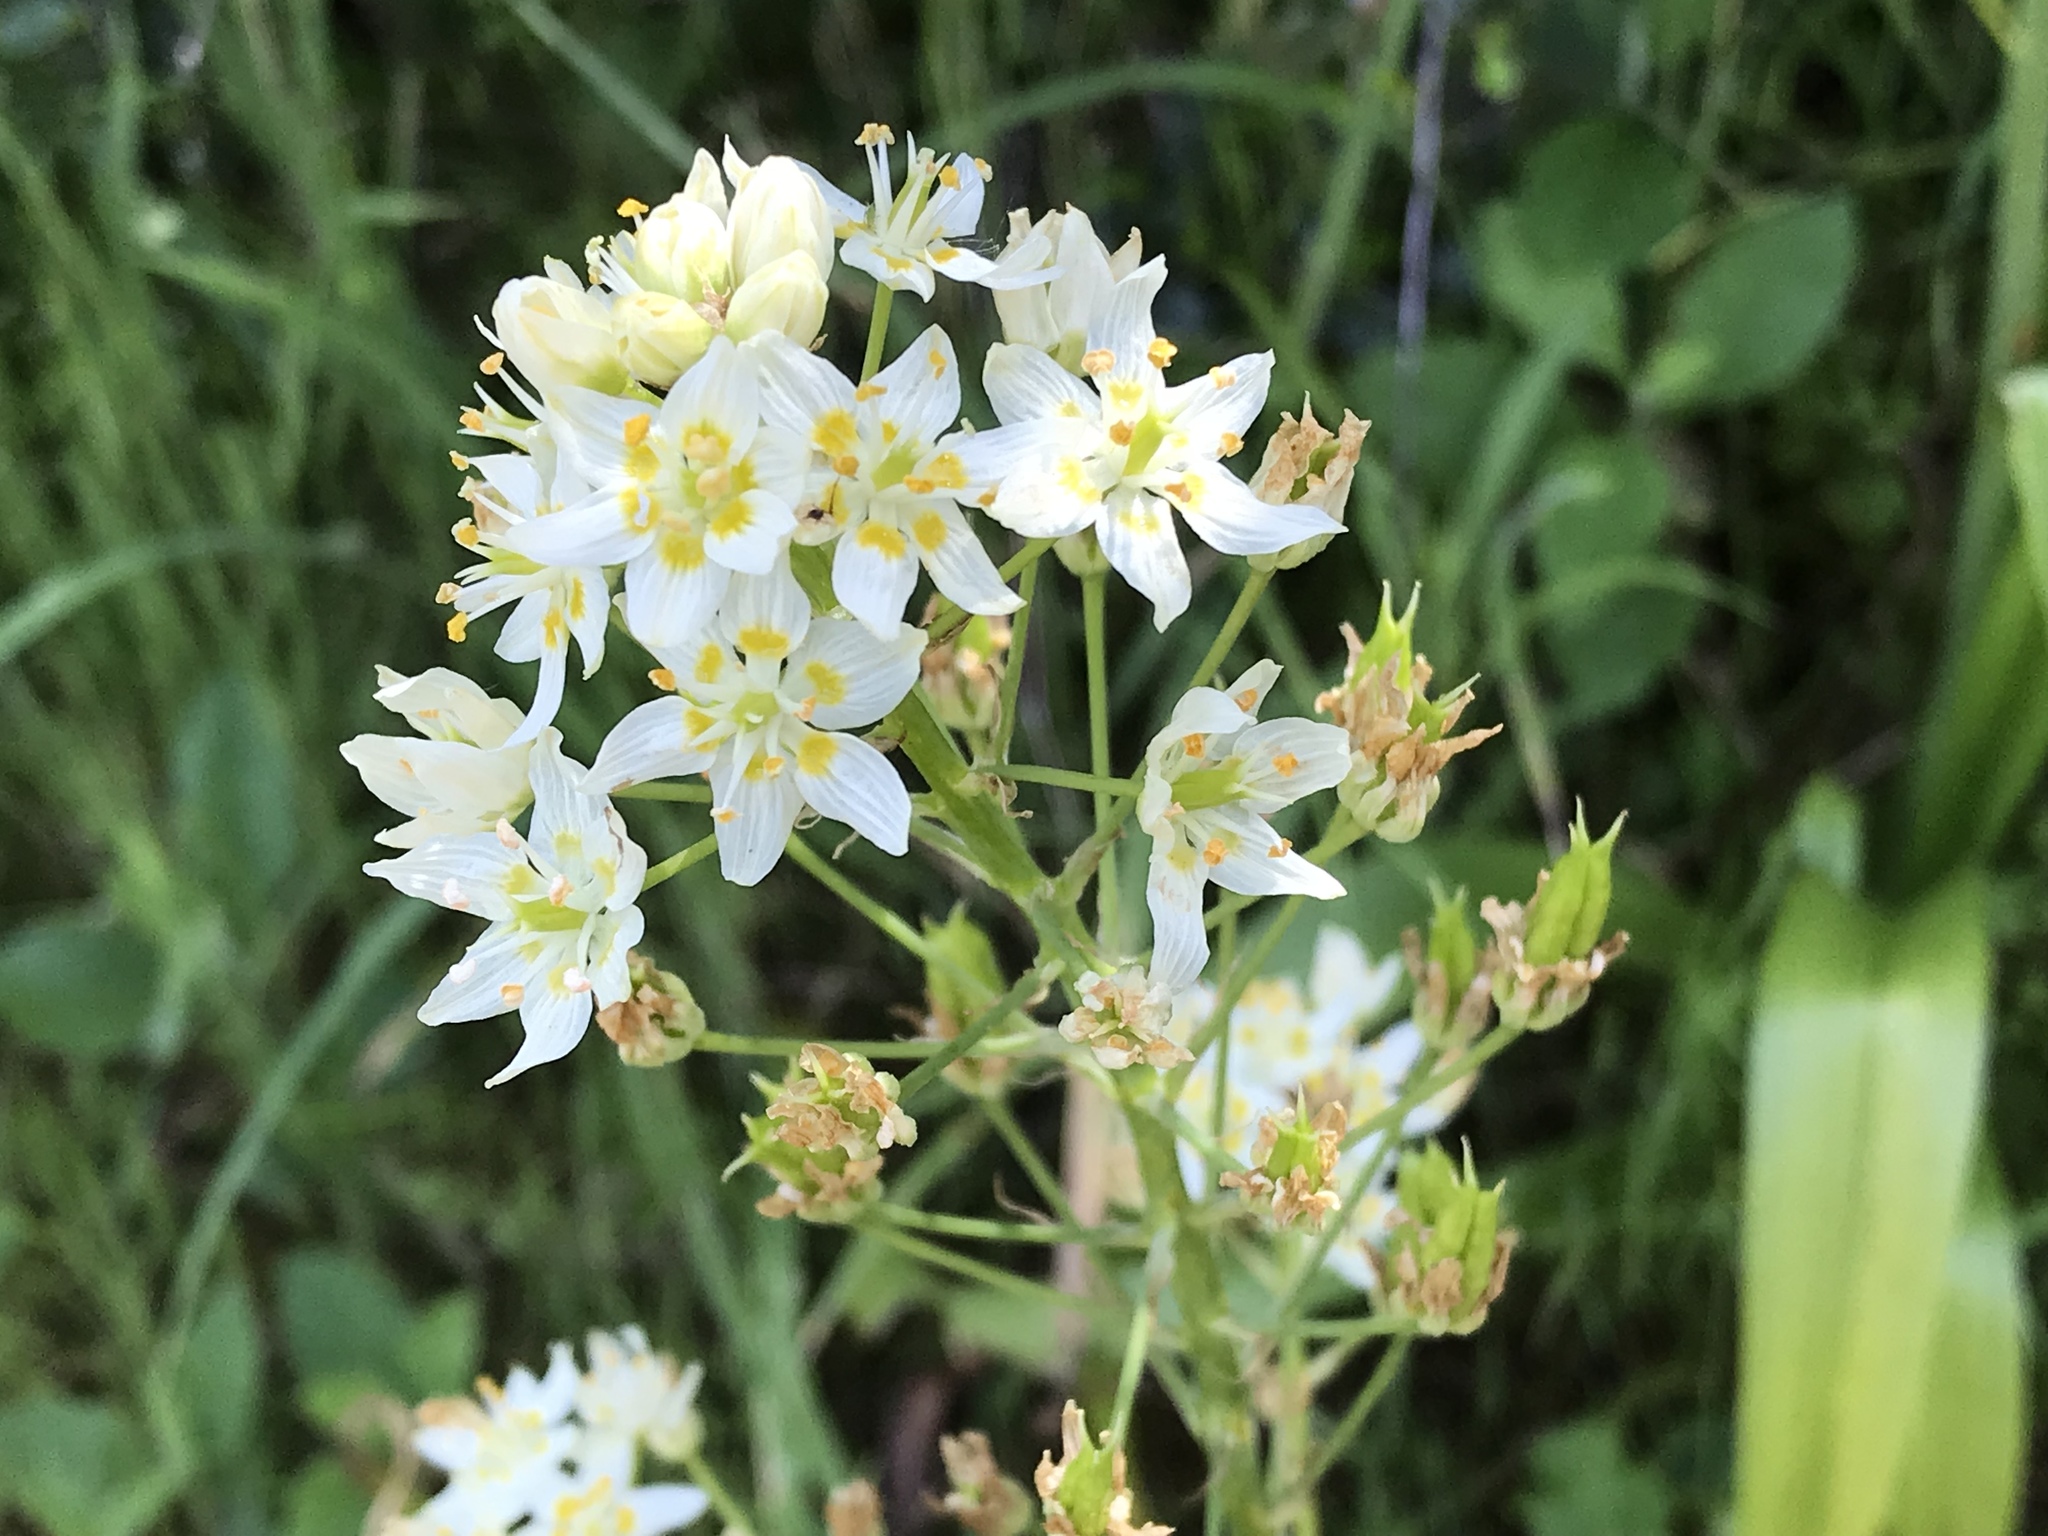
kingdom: Plantae
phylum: Tracheophyta
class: Liliopsida
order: Liliales
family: Melanthiaceae
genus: Toxicoscordion
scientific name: Toxicoscordion fremontii
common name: Fremont's death camas
